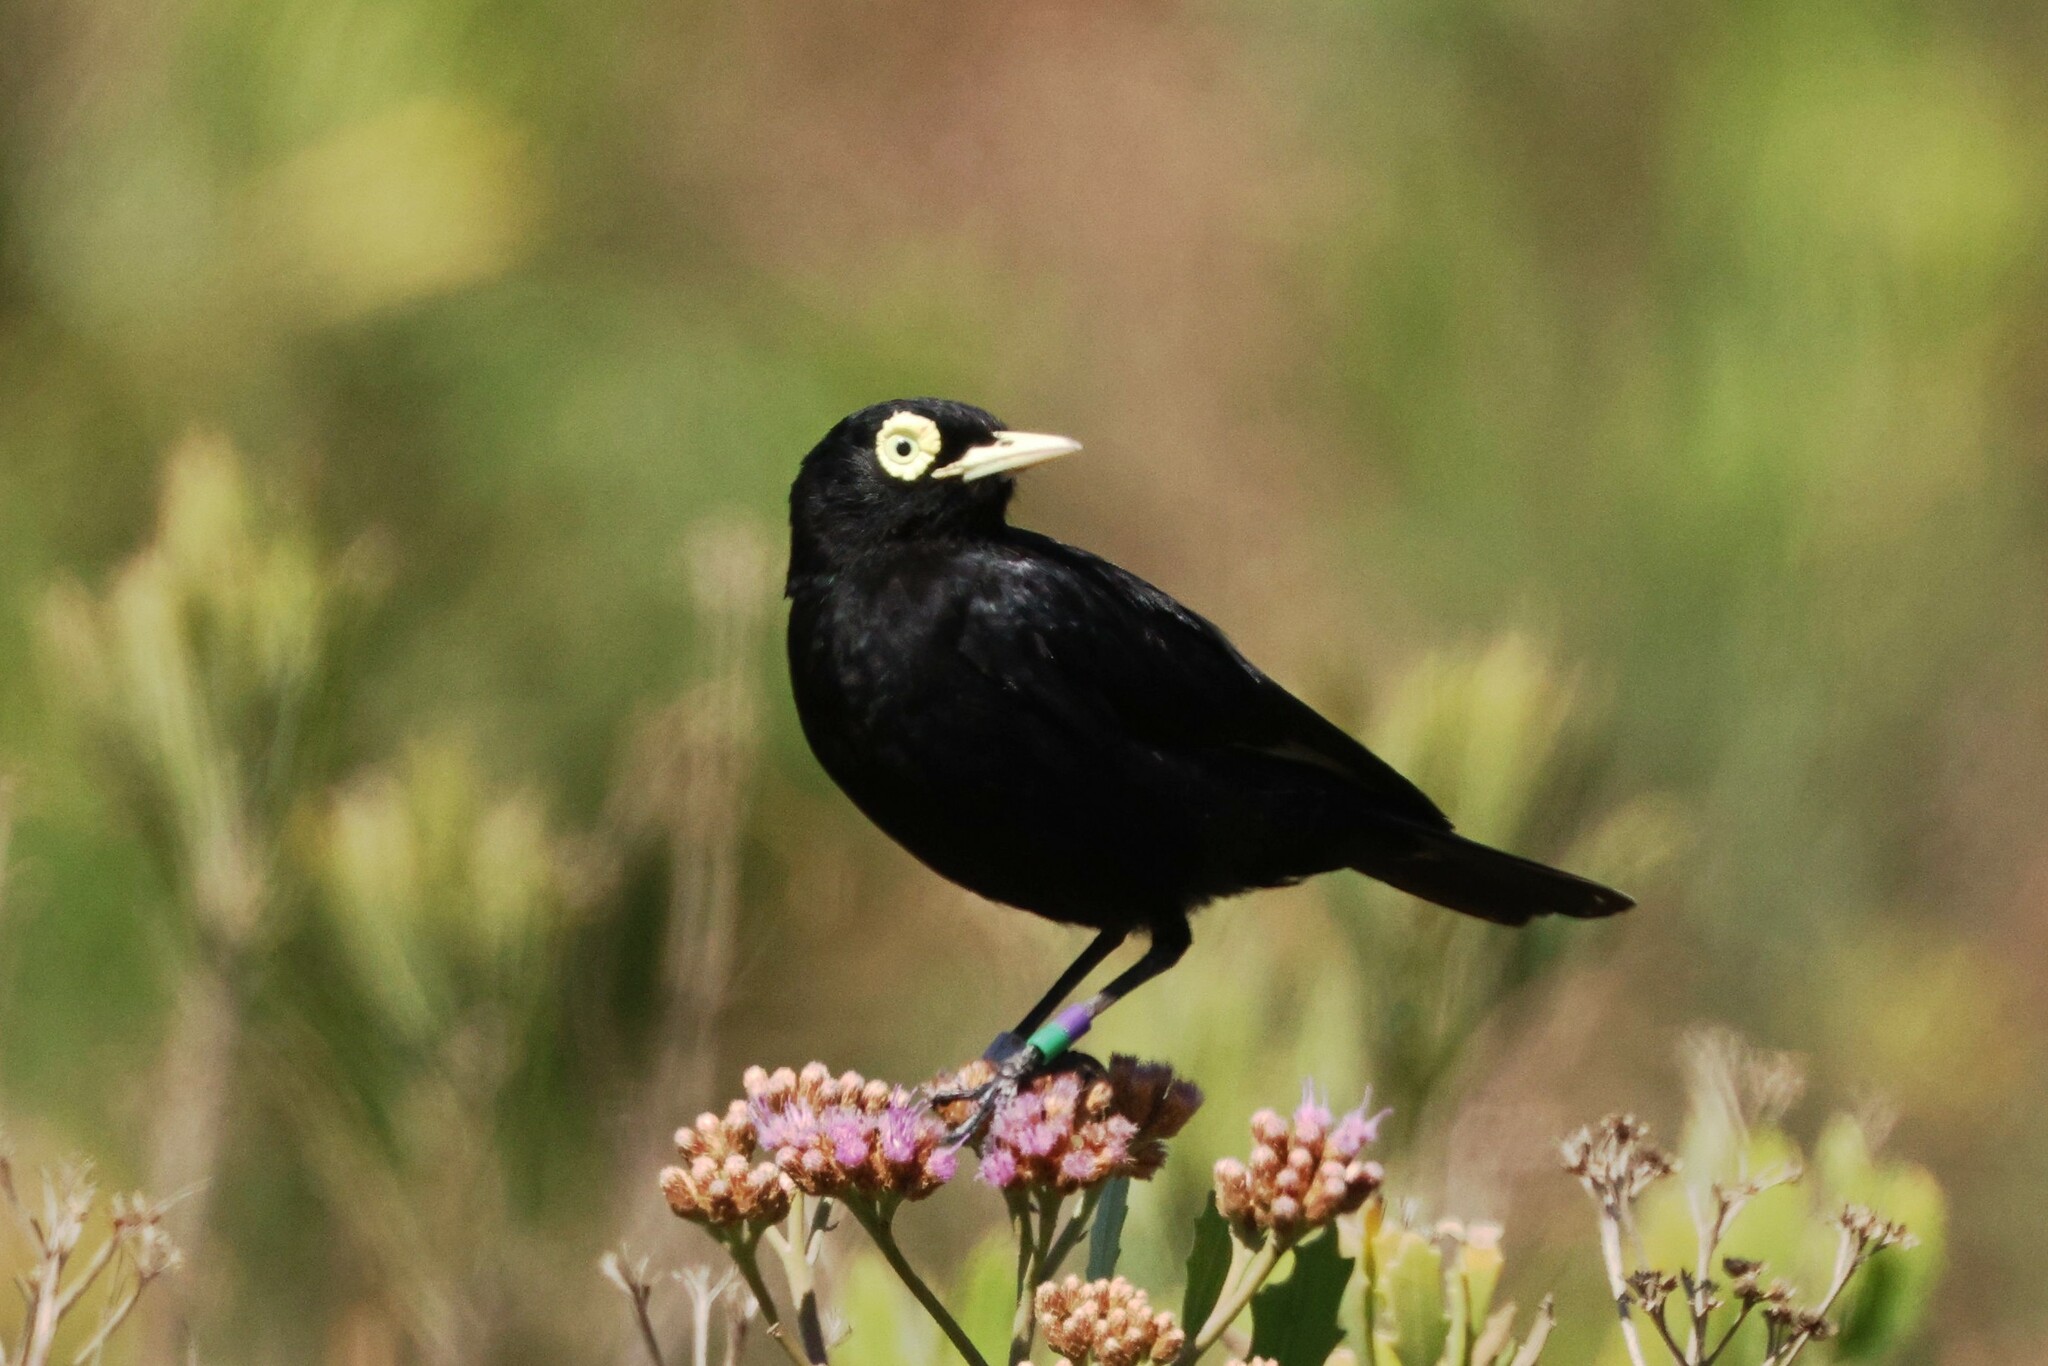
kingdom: Animalia
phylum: Chordata
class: Aves
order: Passeriformes
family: Tyrannidae
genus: Hymenops
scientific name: Hymenops perspicillatus
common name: Spectacled tyrant
